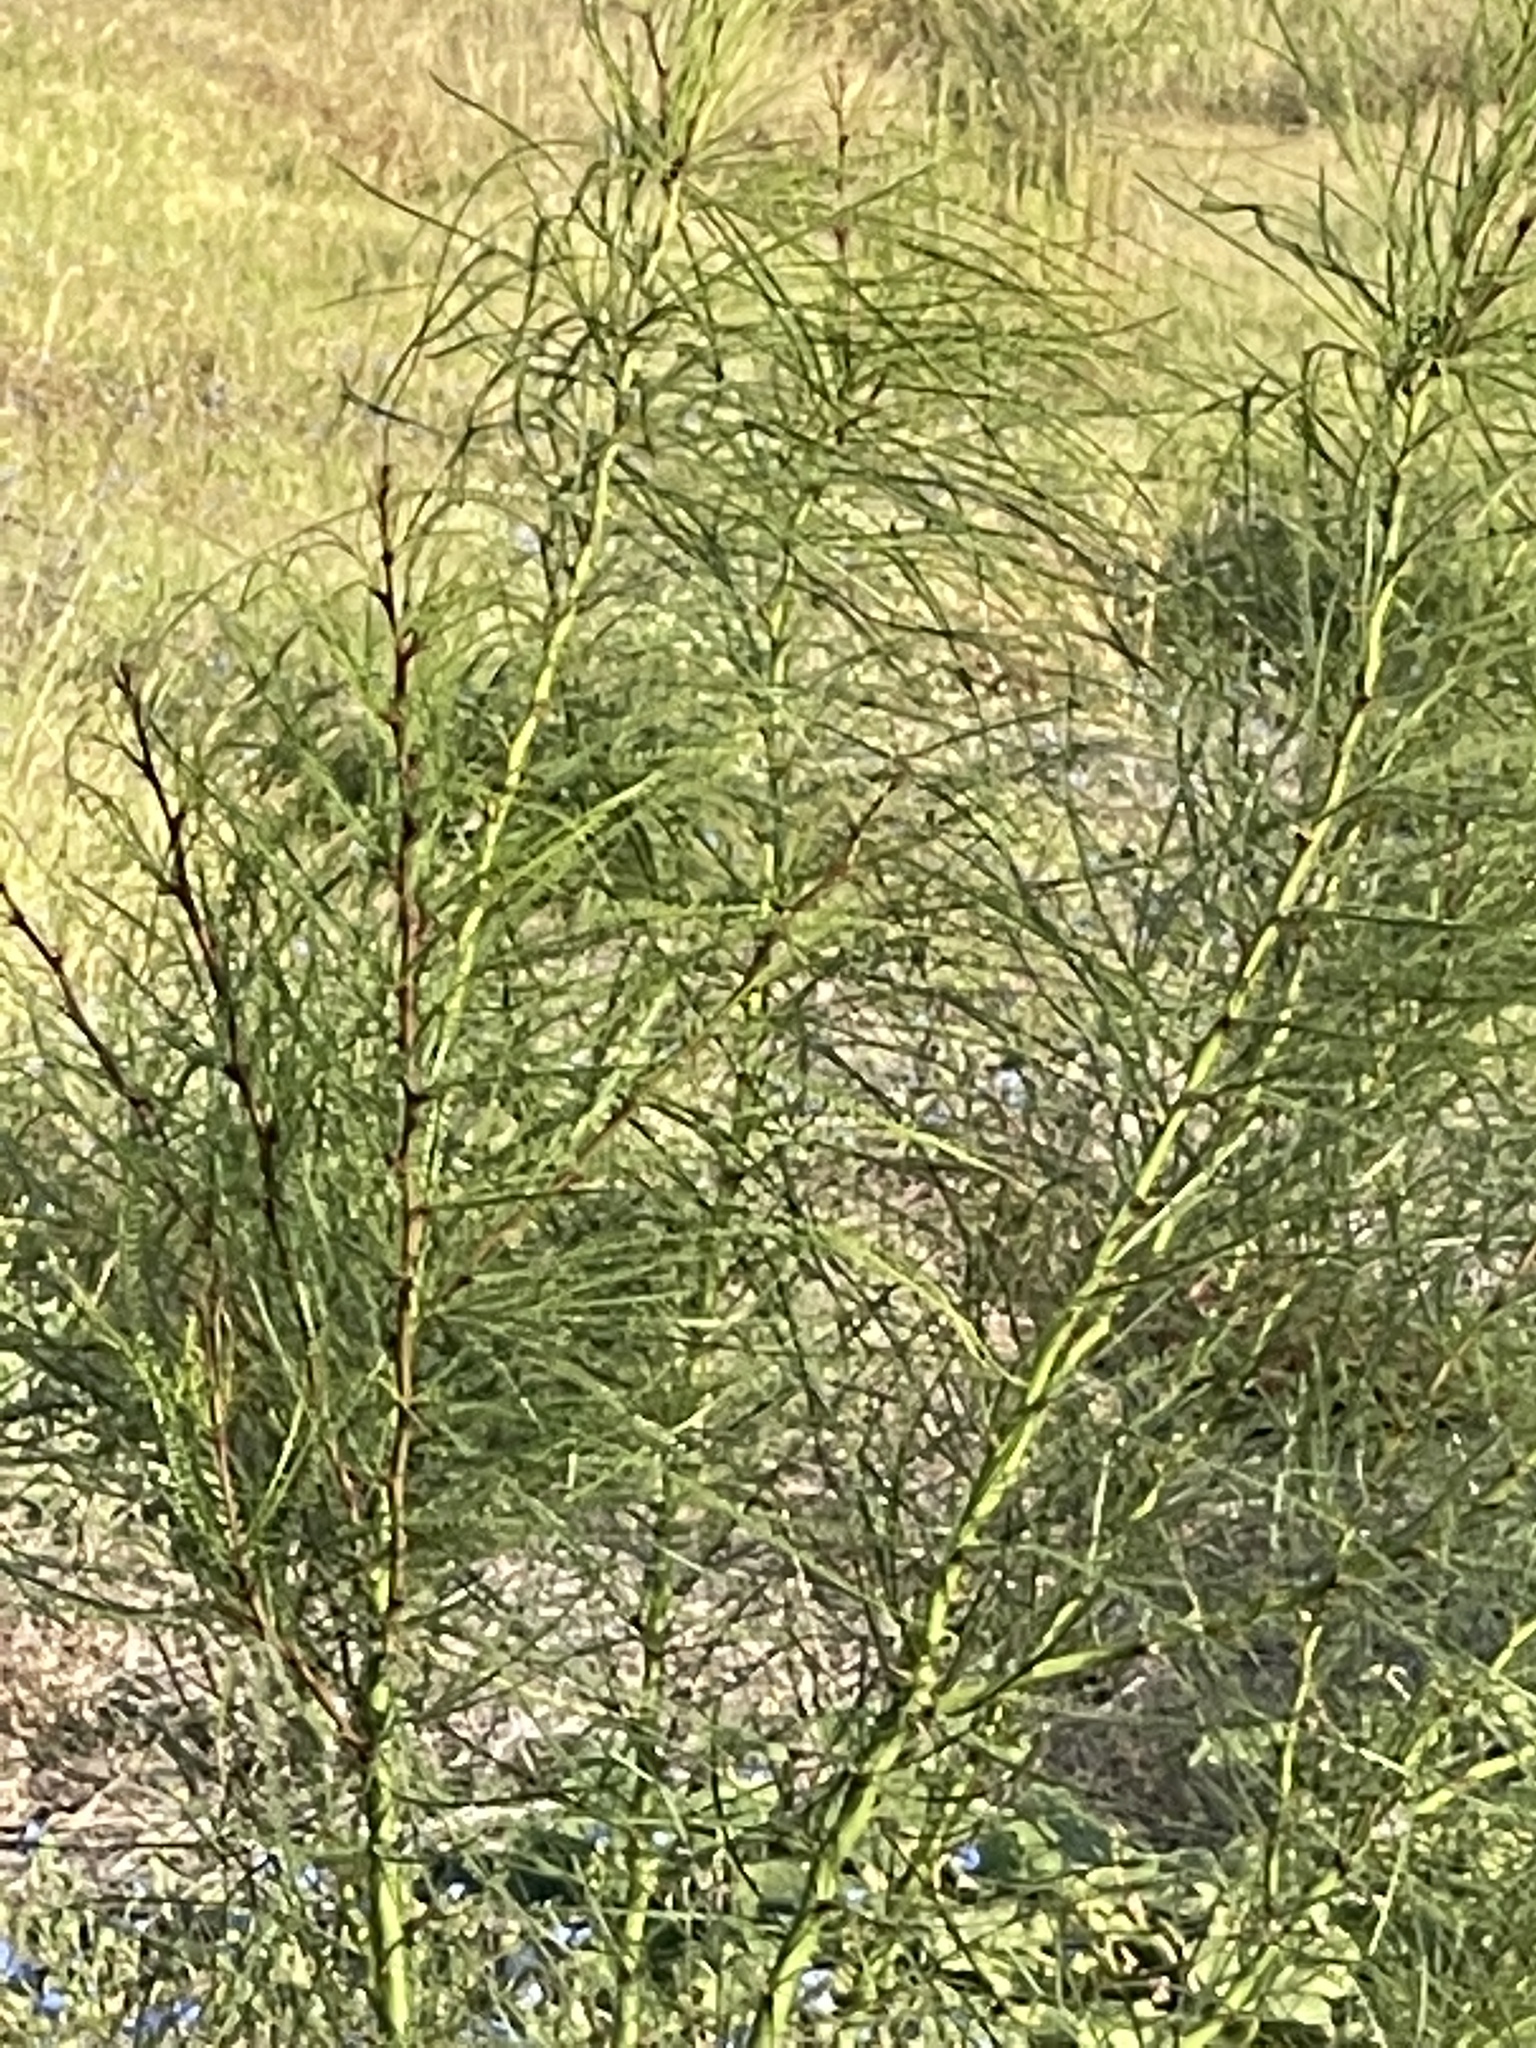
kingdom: Plantae
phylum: Tracheophyta
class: Magnoliopsida
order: Fabales
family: Fabaceae
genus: Parkinsonia
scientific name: Parkinsonia aculeata
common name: Jerusalem thorn
